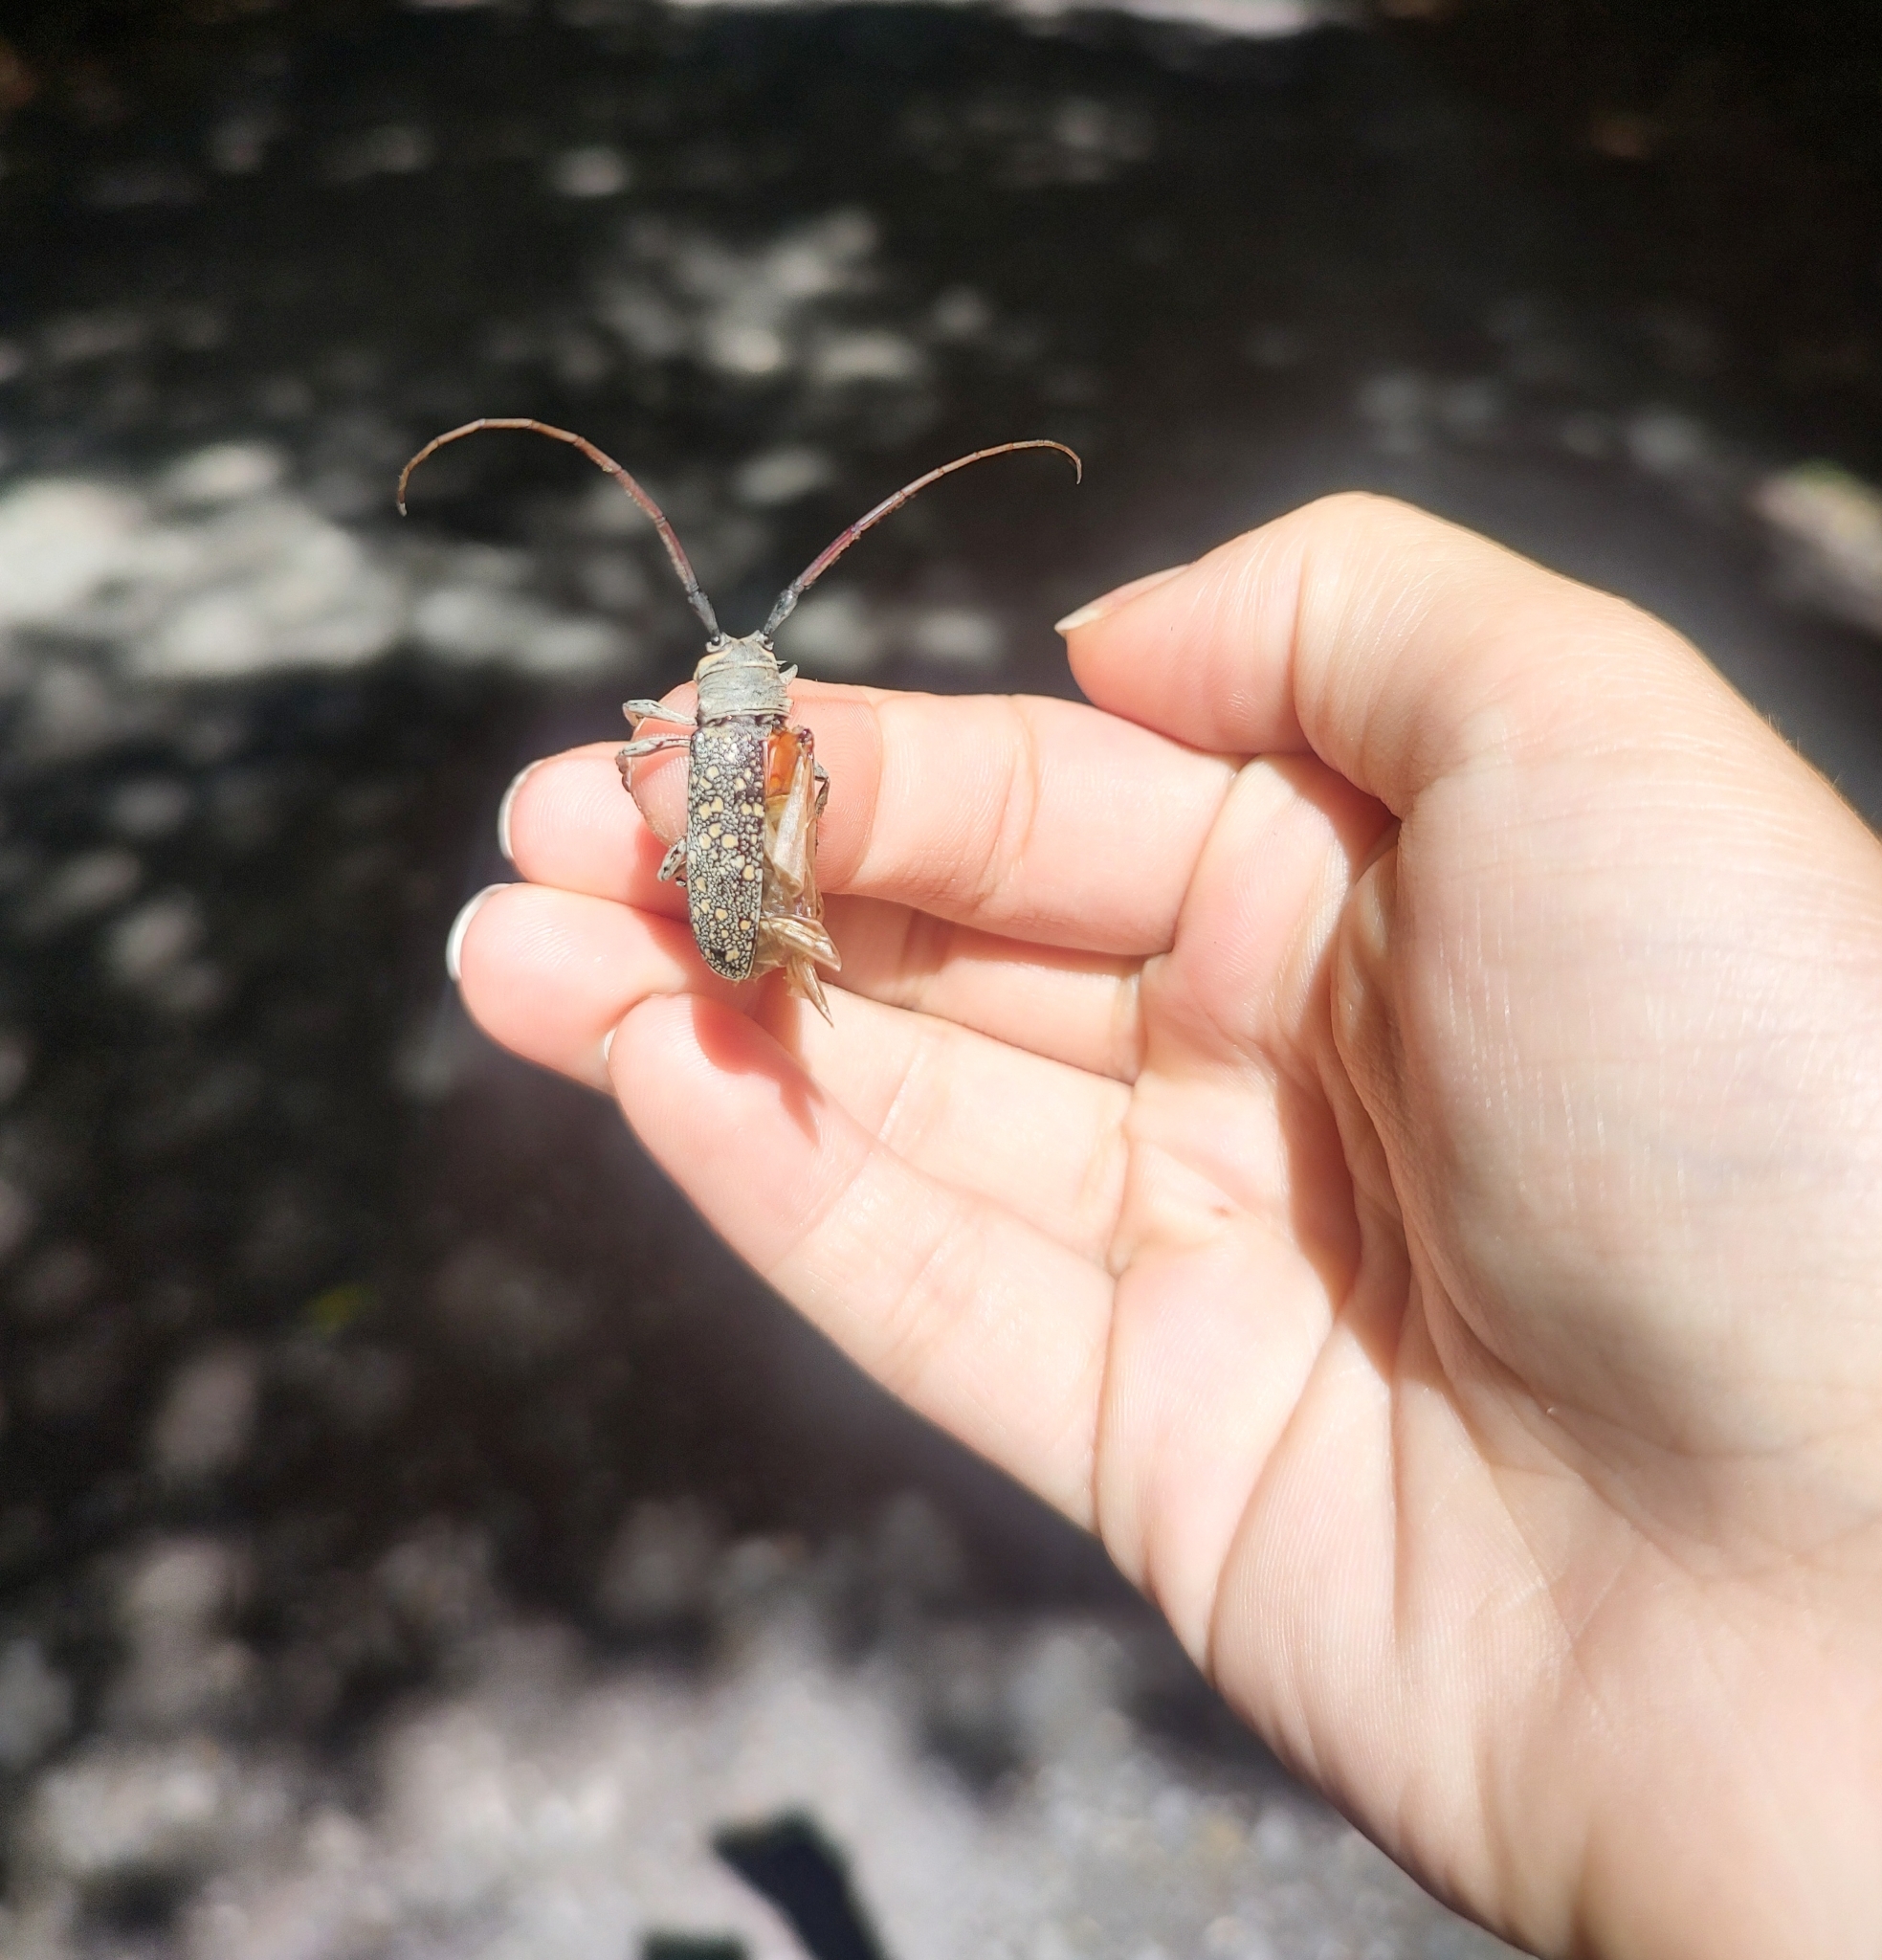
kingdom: Animalia
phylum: Arthropoda
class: Insecta
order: Coleoptera
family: Cerambycidae
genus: Lochmaeocles
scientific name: Lochmaeocles sladeni
